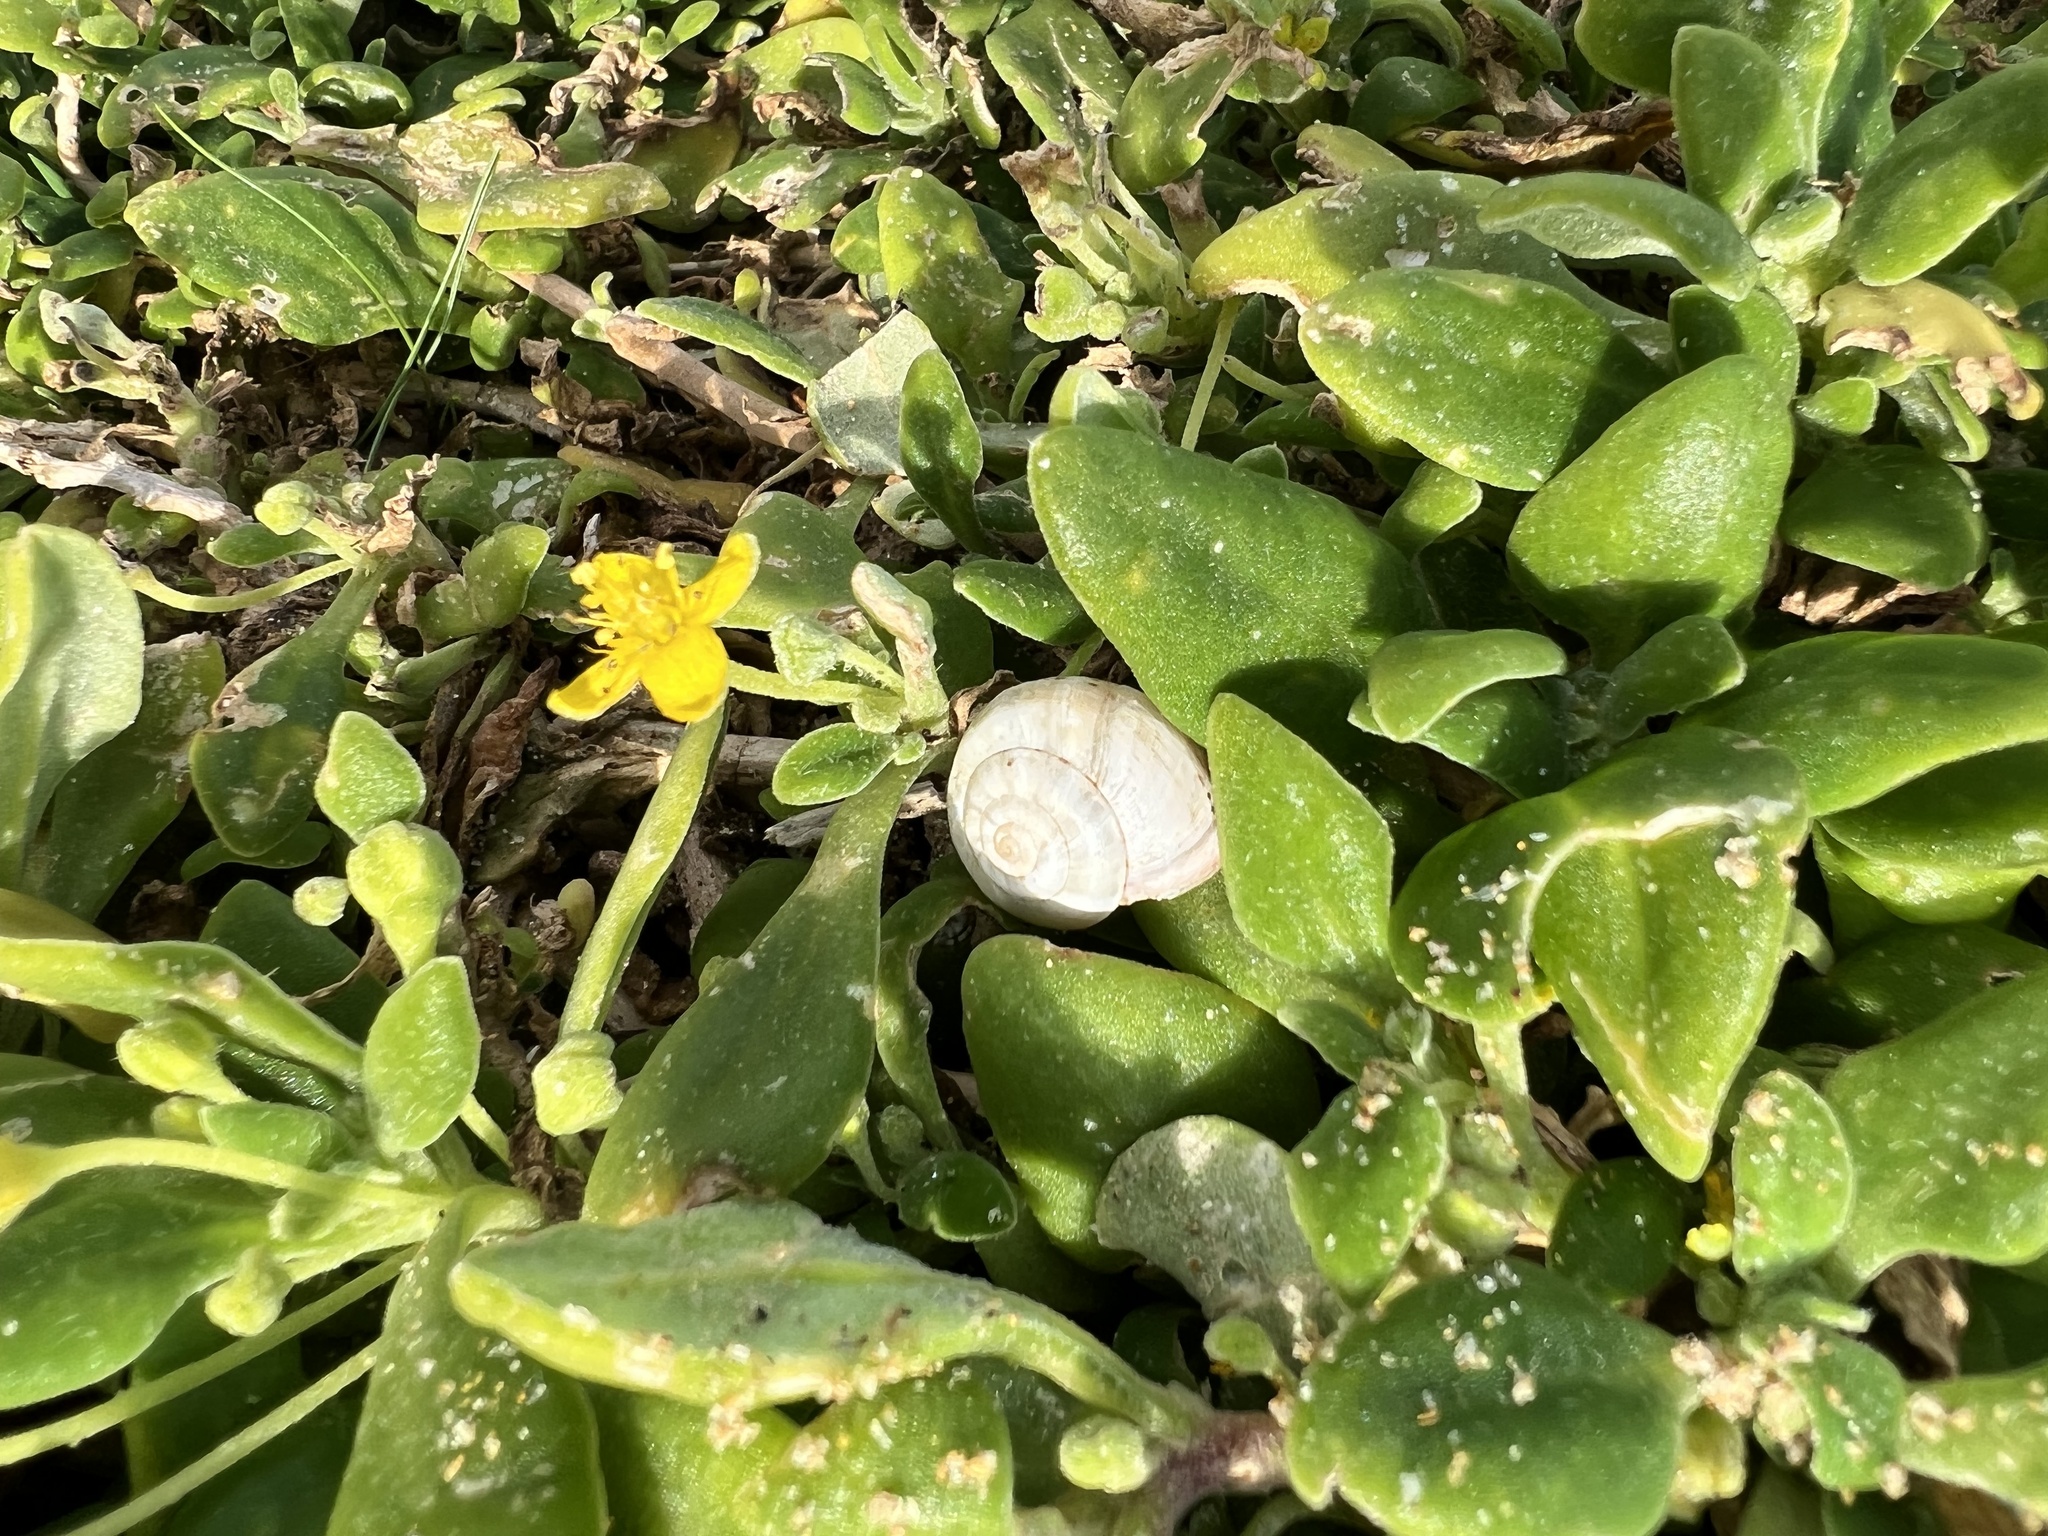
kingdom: Animalia
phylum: Mollusca
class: Gastropoda
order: Stylommatophora
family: Helicidae
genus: Theba
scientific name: Theba pisana
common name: White snail
